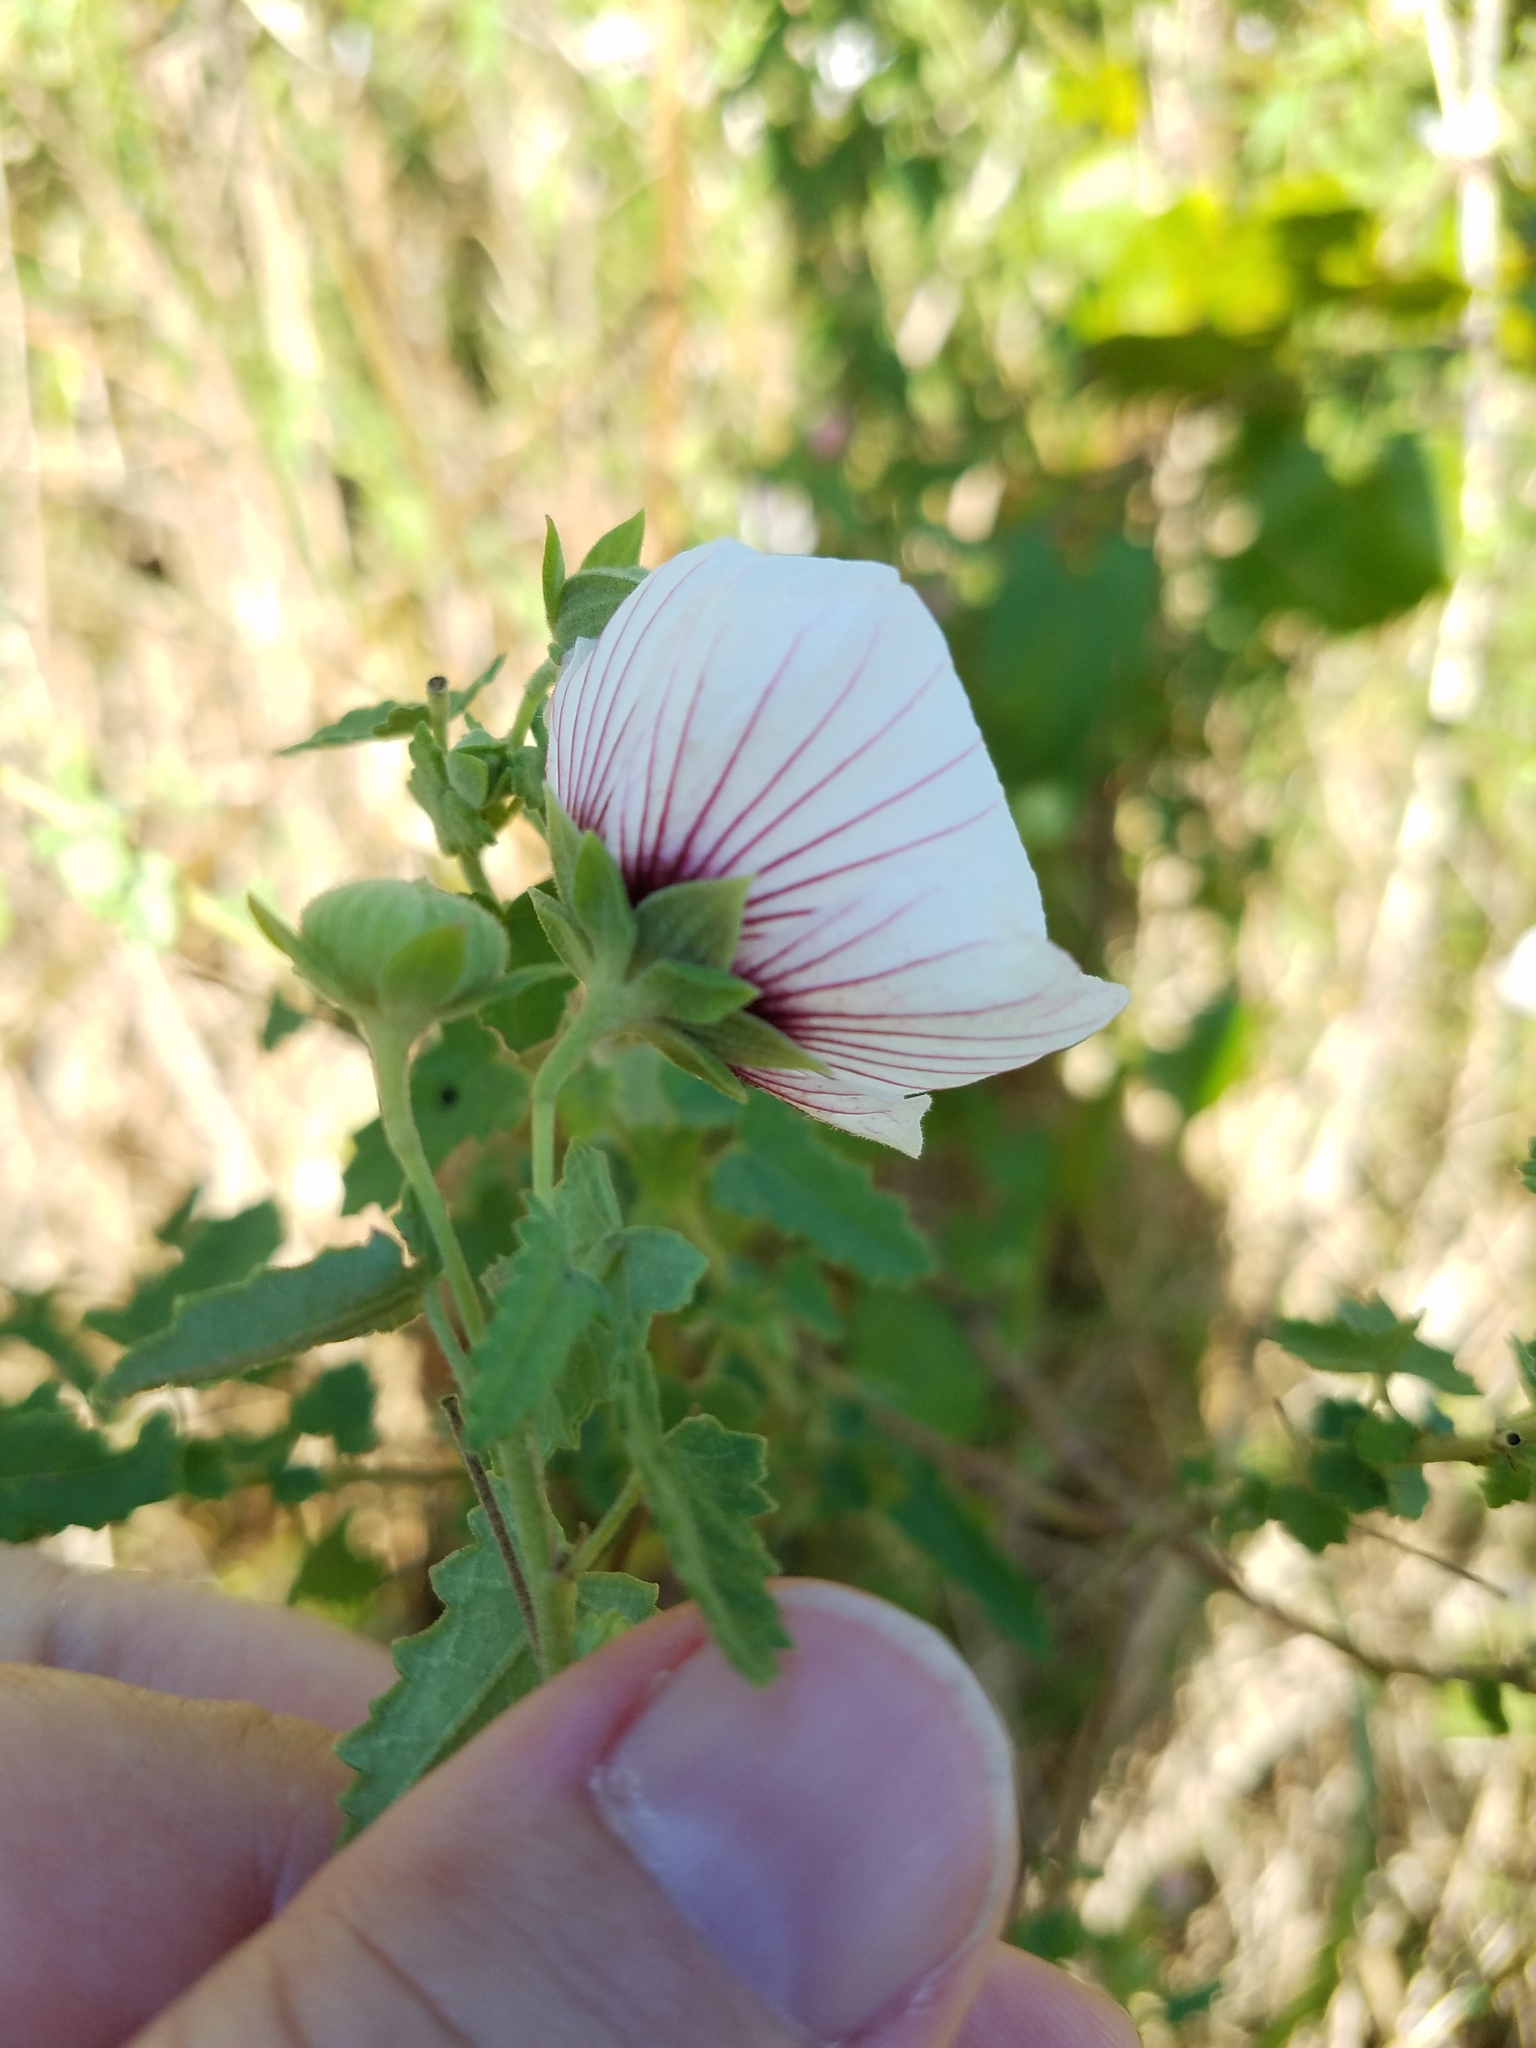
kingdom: Plantae
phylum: Tracheophyta
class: Magnoliopsida
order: Malvales
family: Malvaceae
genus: Pavonia
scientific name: Pavonia hastata
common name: Spearleaf swampmallow
